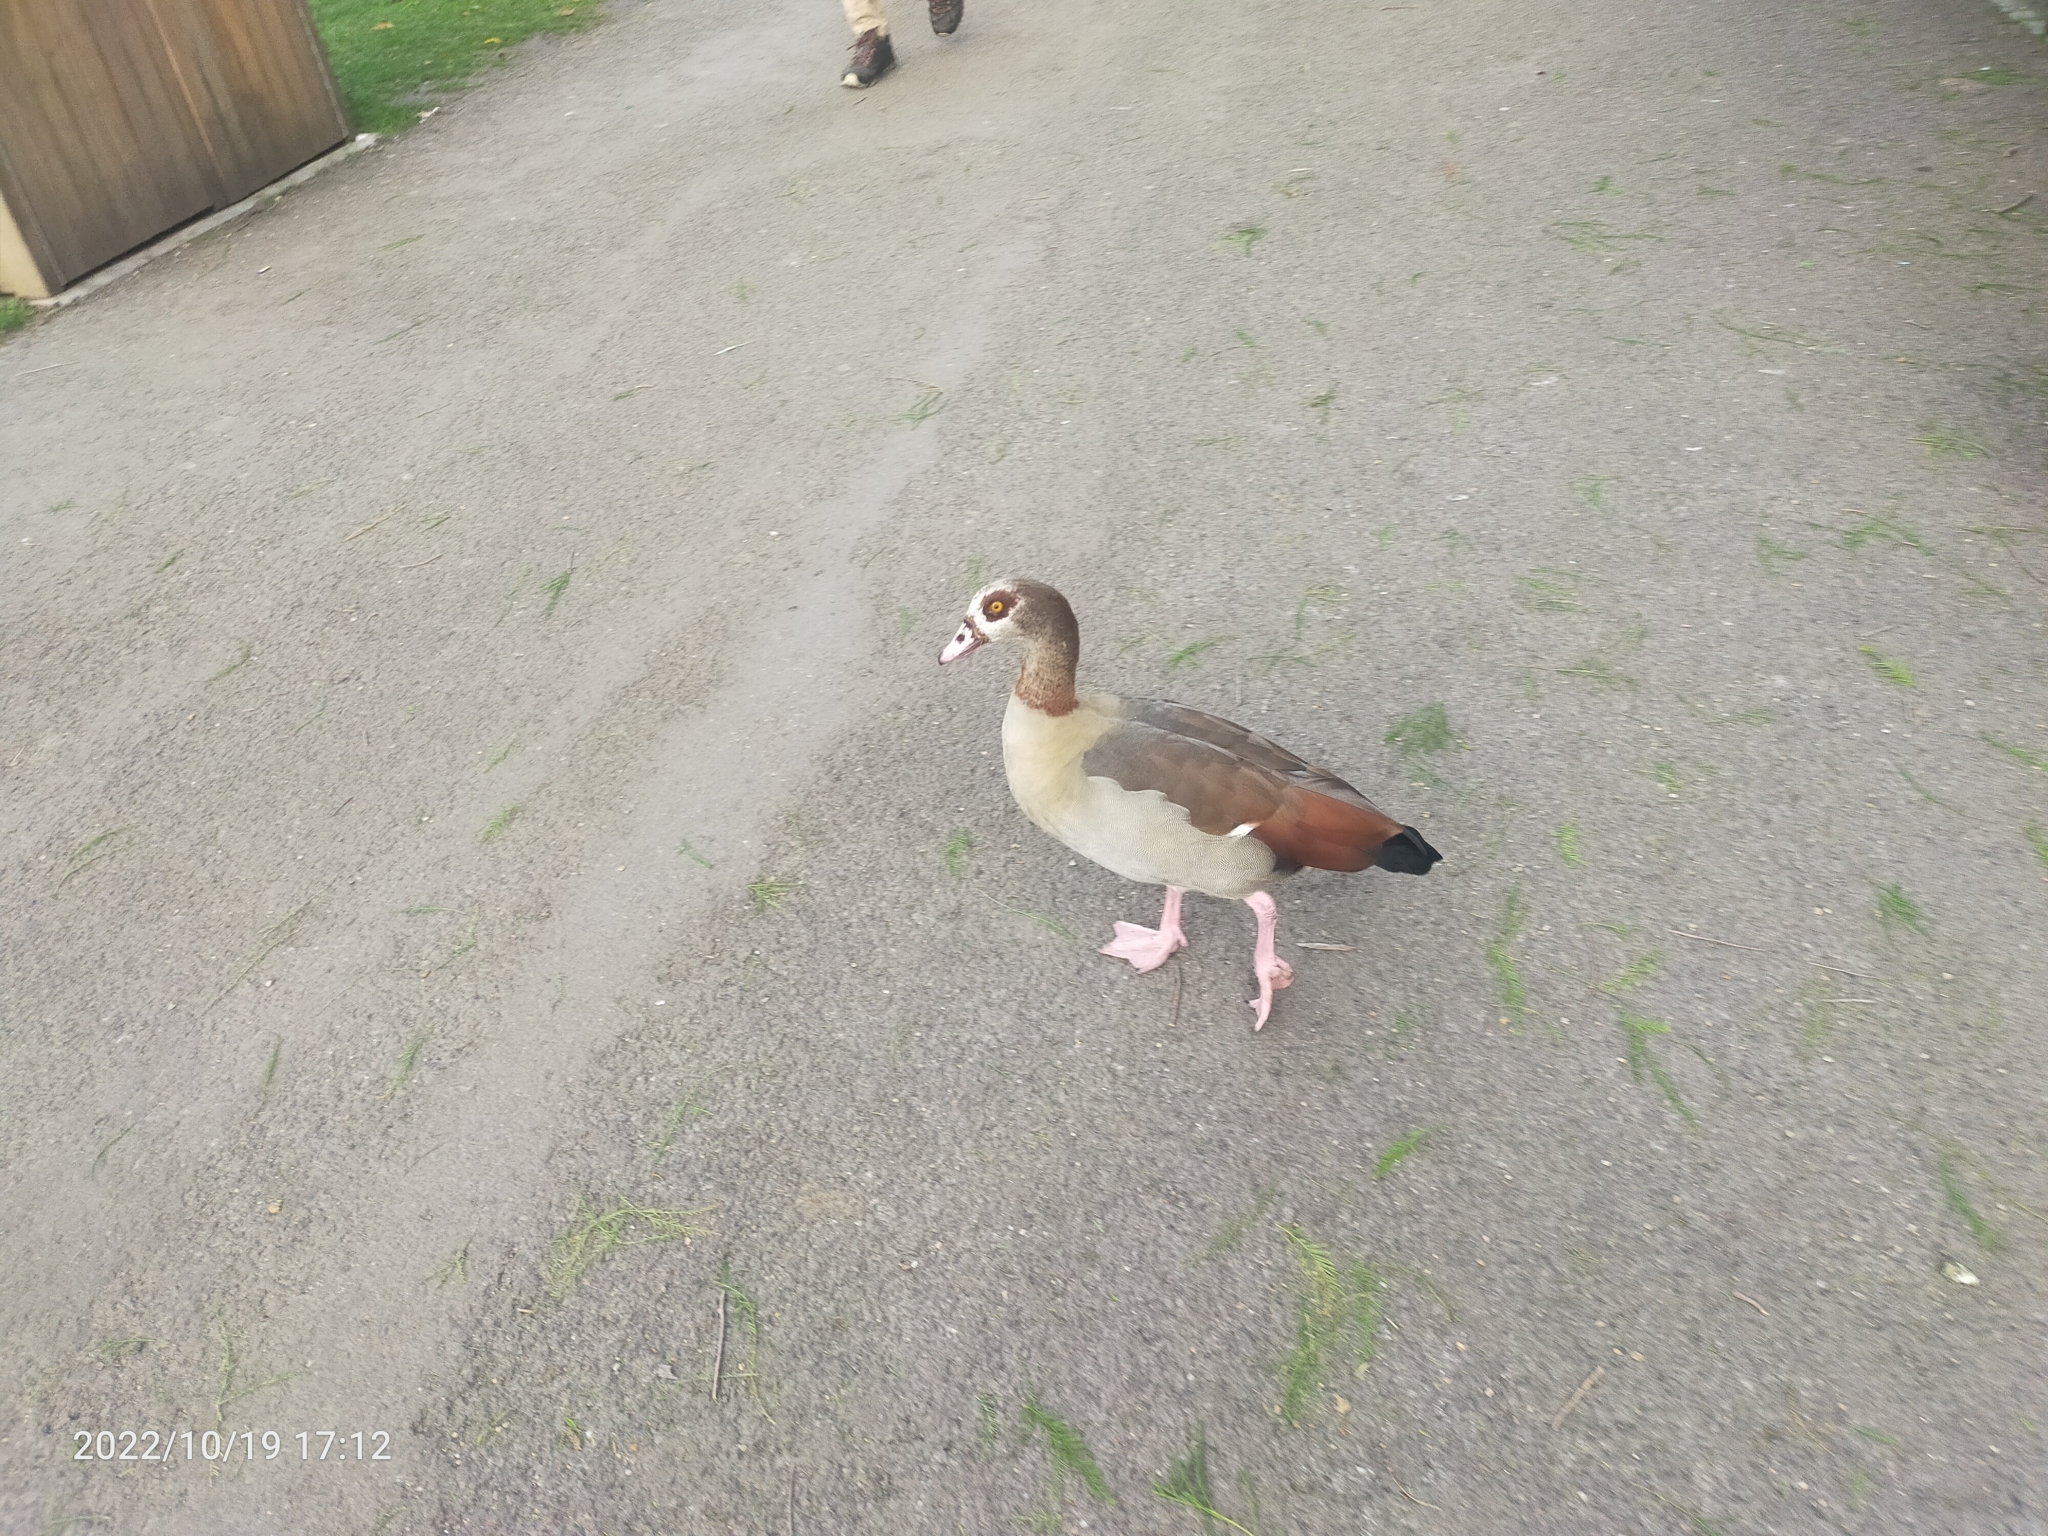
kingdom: Animalia
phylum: Chordata
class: Aves
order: Anseriformes
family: Anatidae
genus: Alopochen
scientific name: Alopochen aegyptiaca
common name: Egyptian goose
